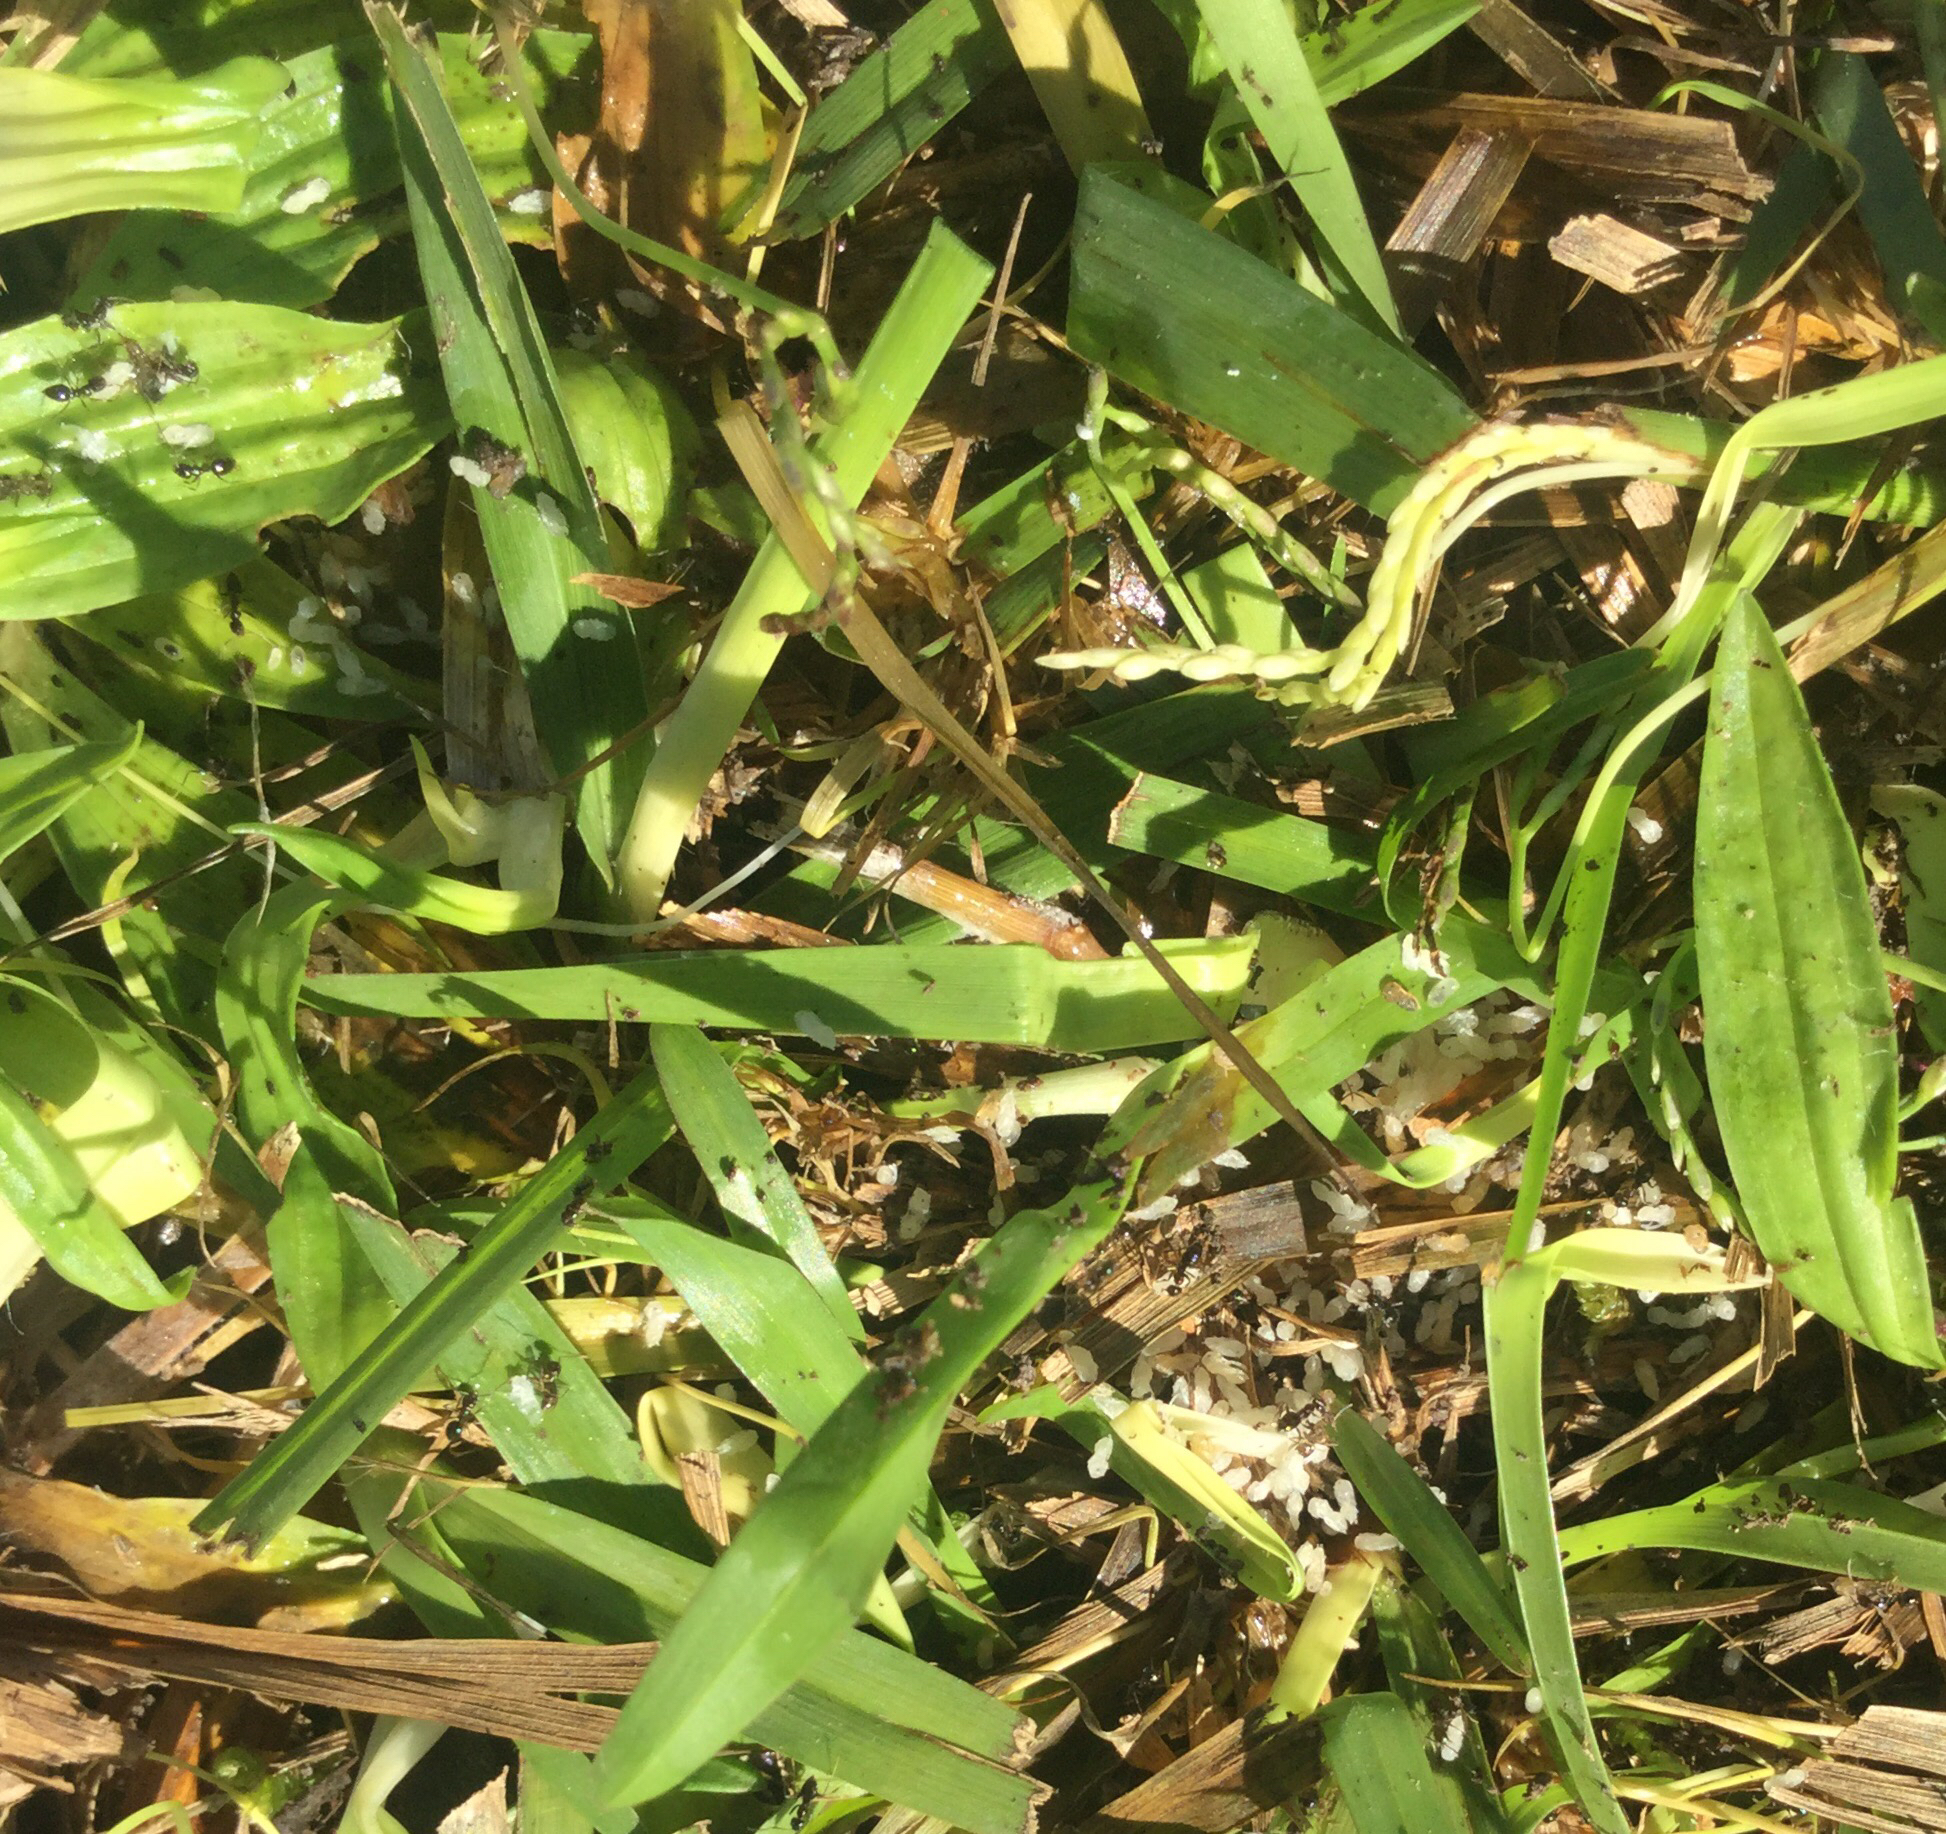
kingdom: Animalia
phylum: Arthropoda
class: Insecta
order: Hymenoptera
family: Formicidae
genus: Technomyrmex
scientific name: Technomyrmex jocosus
